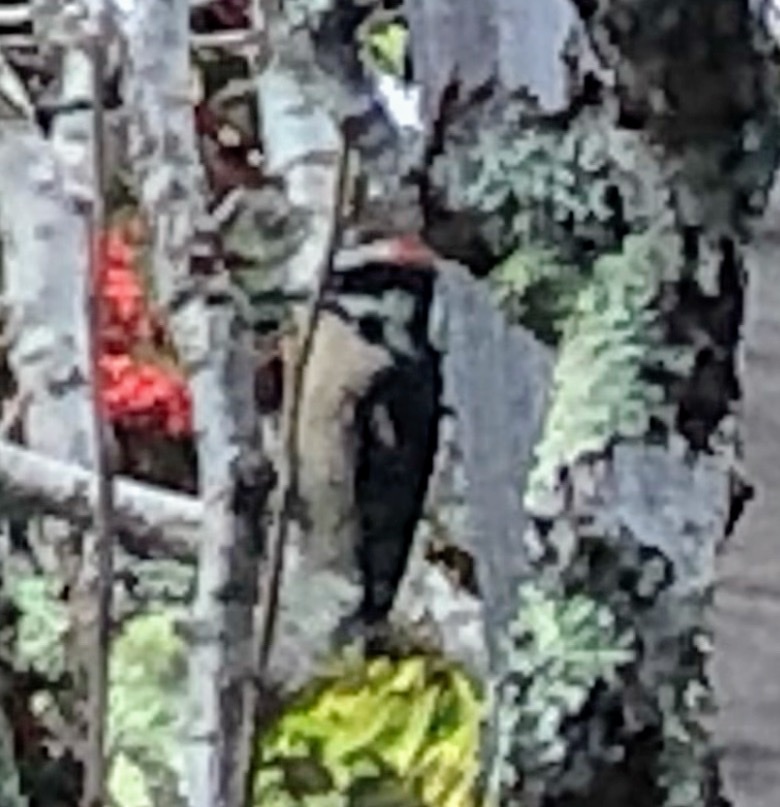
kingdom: Animalia
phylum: Chordata
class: Aves
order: Piciformes
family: Picidae
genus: Dryobates
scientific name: Dryobates pubescens
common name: Downy woodpecker
